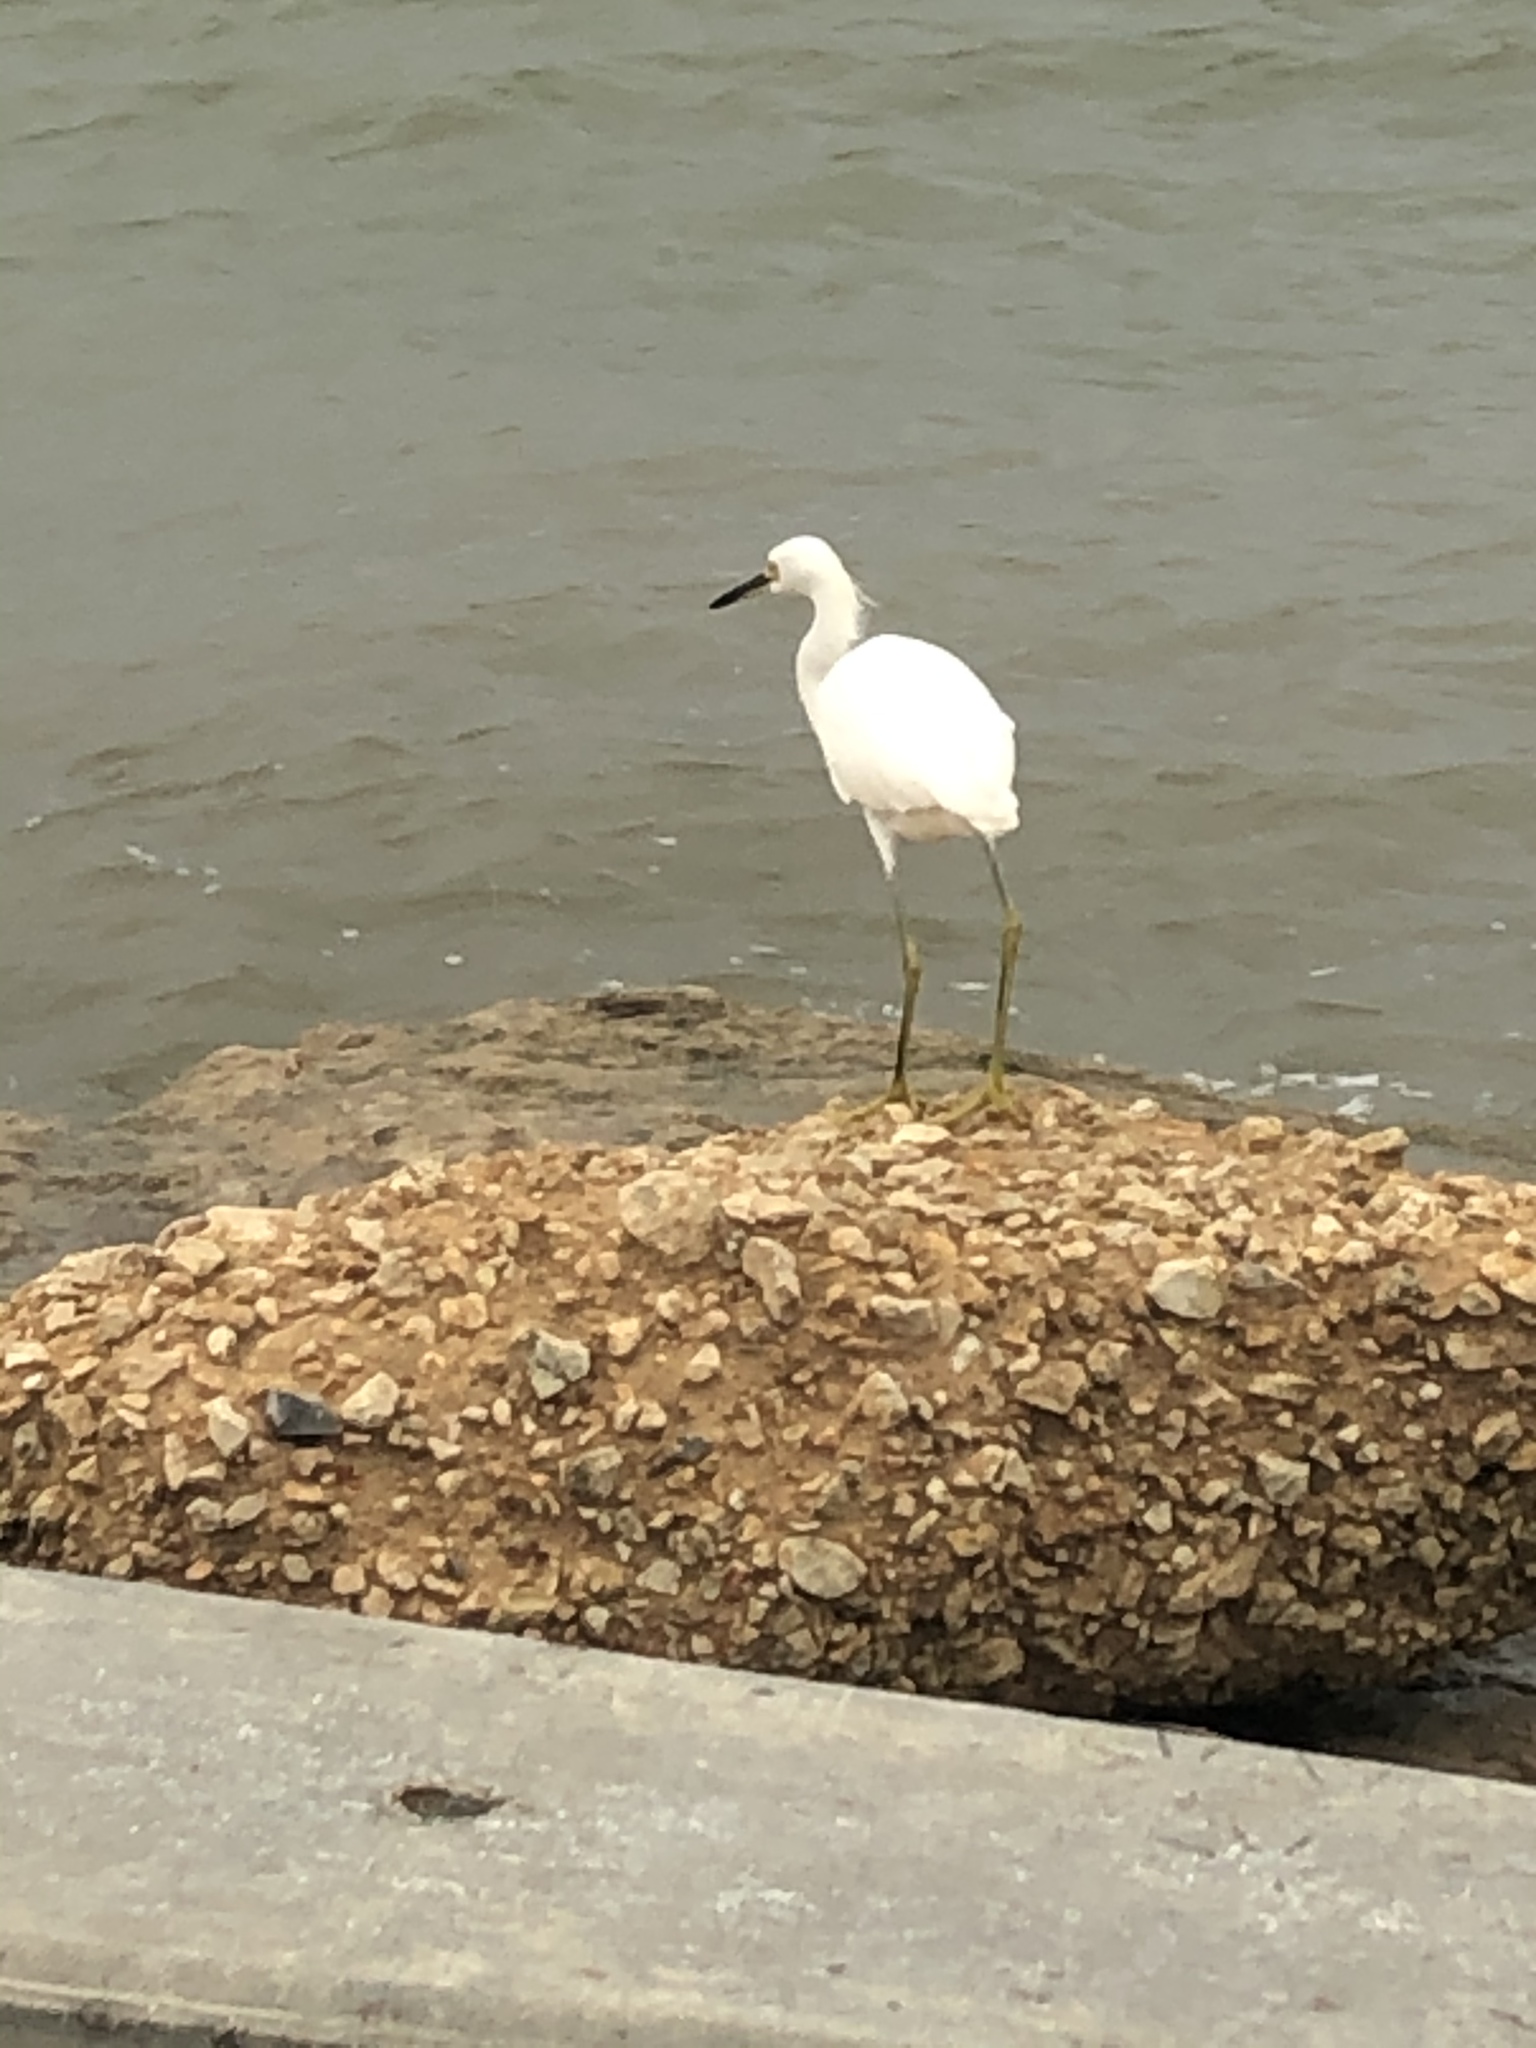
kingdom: Animalia
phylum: Chordata
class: Aves
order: Pelecaniformes
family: Ardeidae
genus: Egretta
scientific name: Egretta thula
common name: Snowy egret
